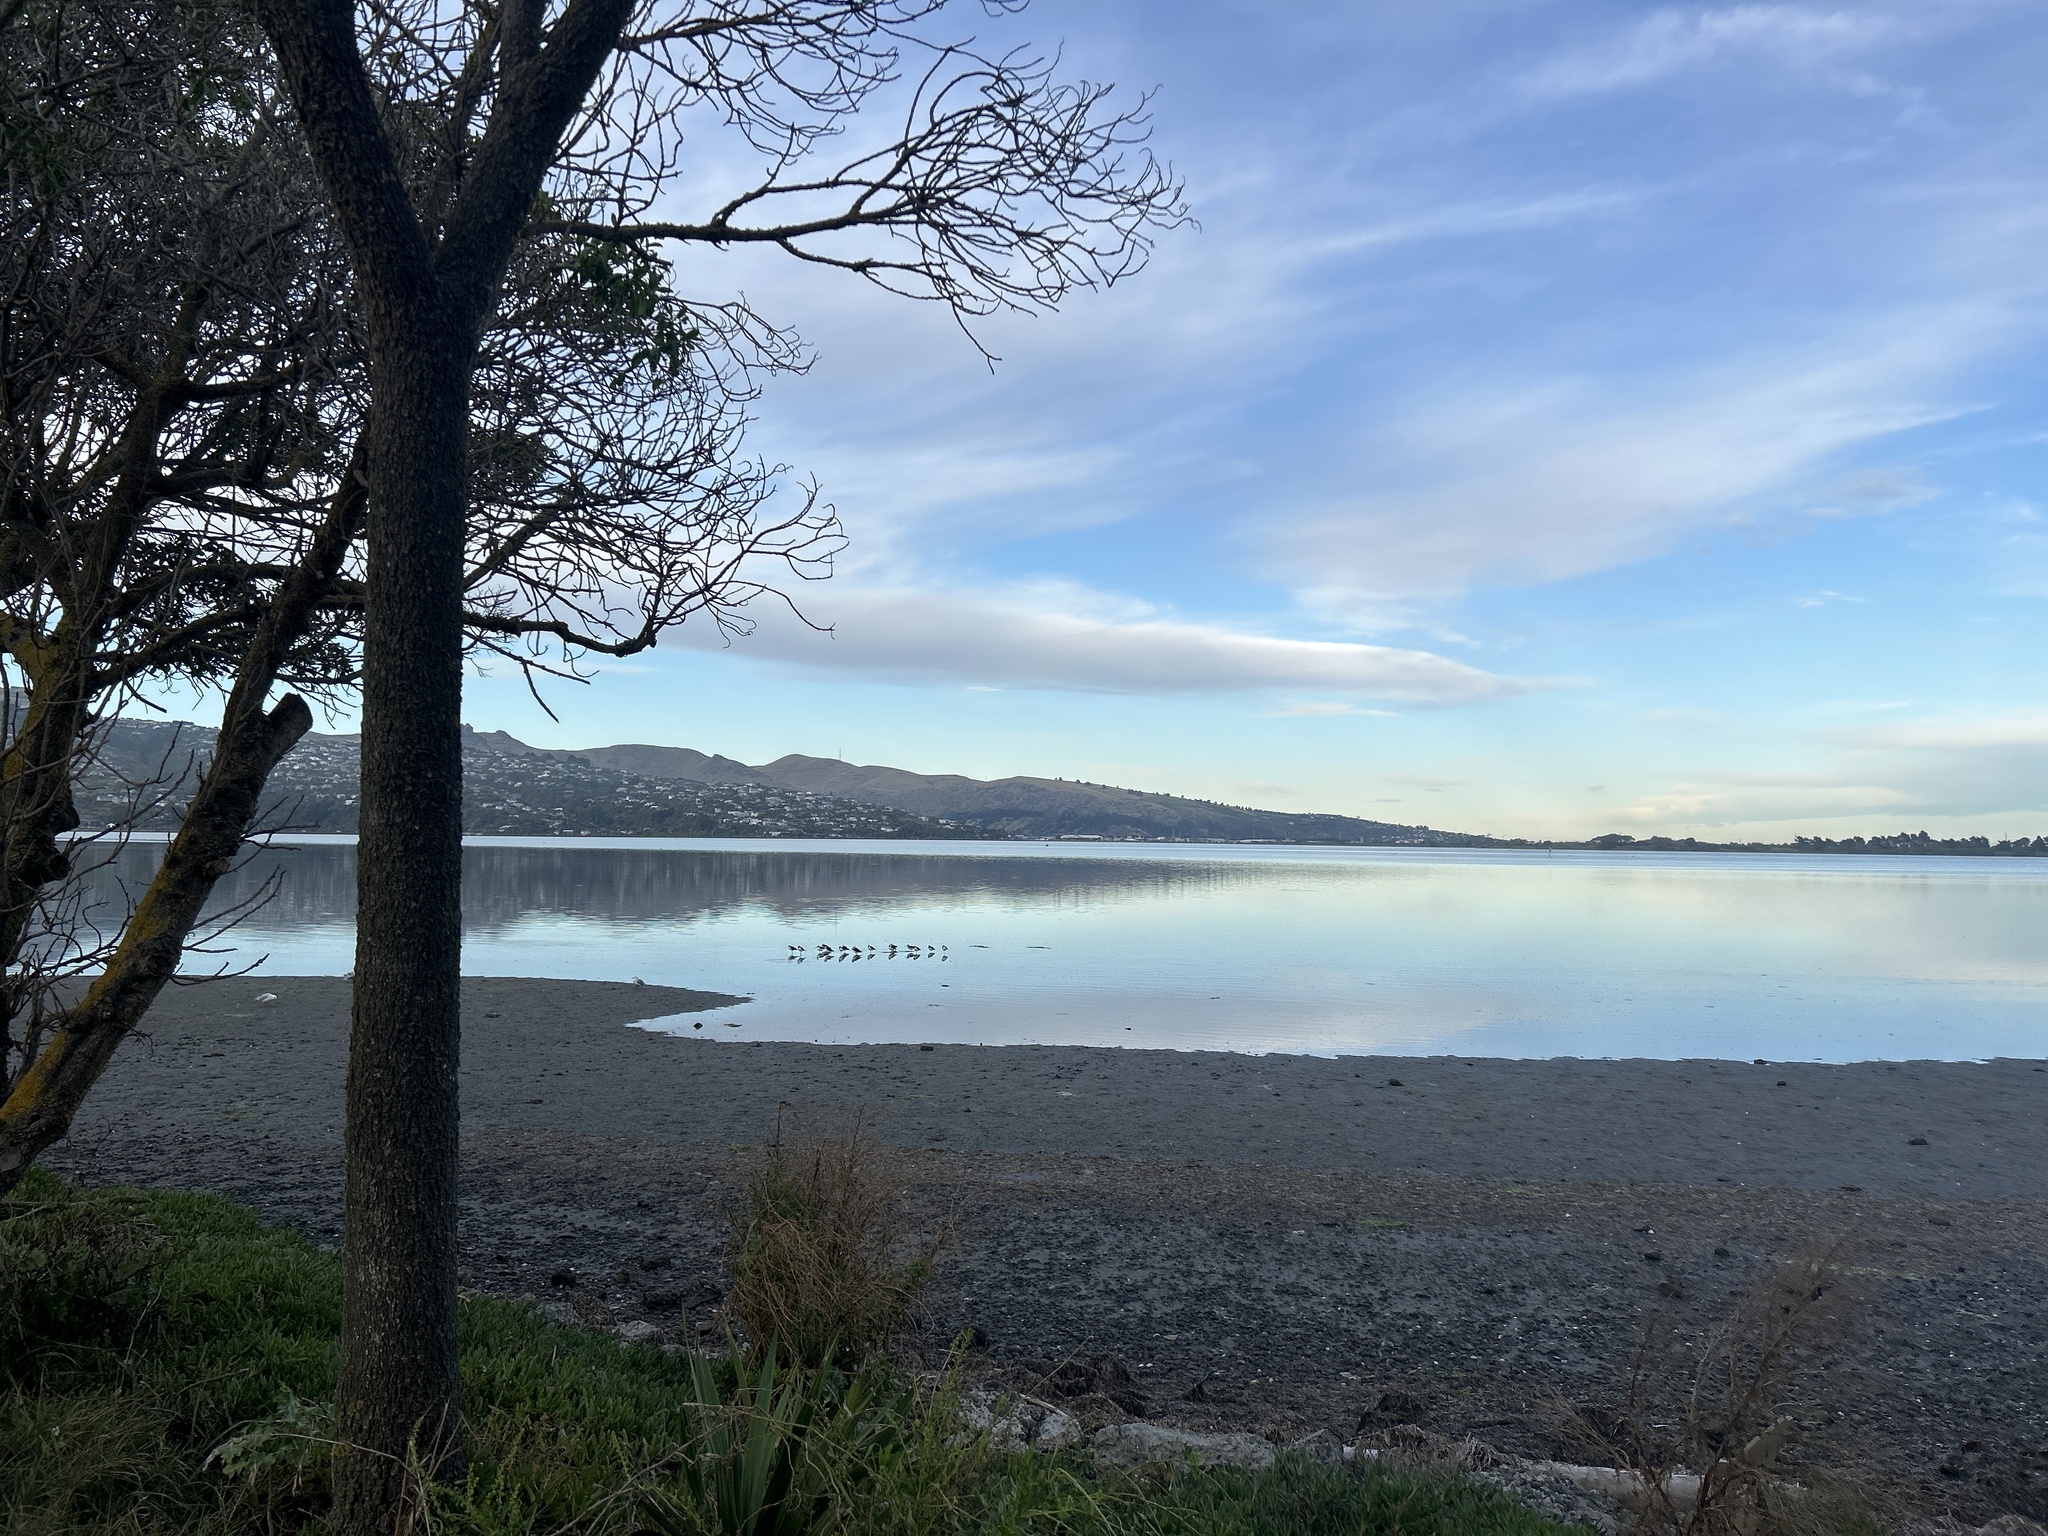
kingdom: Animalia
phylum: Chordata
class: Aves
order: Charadriiformes
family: Recurvirostridae
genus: Himantopus
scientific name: Himantopus leucocephalus
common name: White-headed stilt
